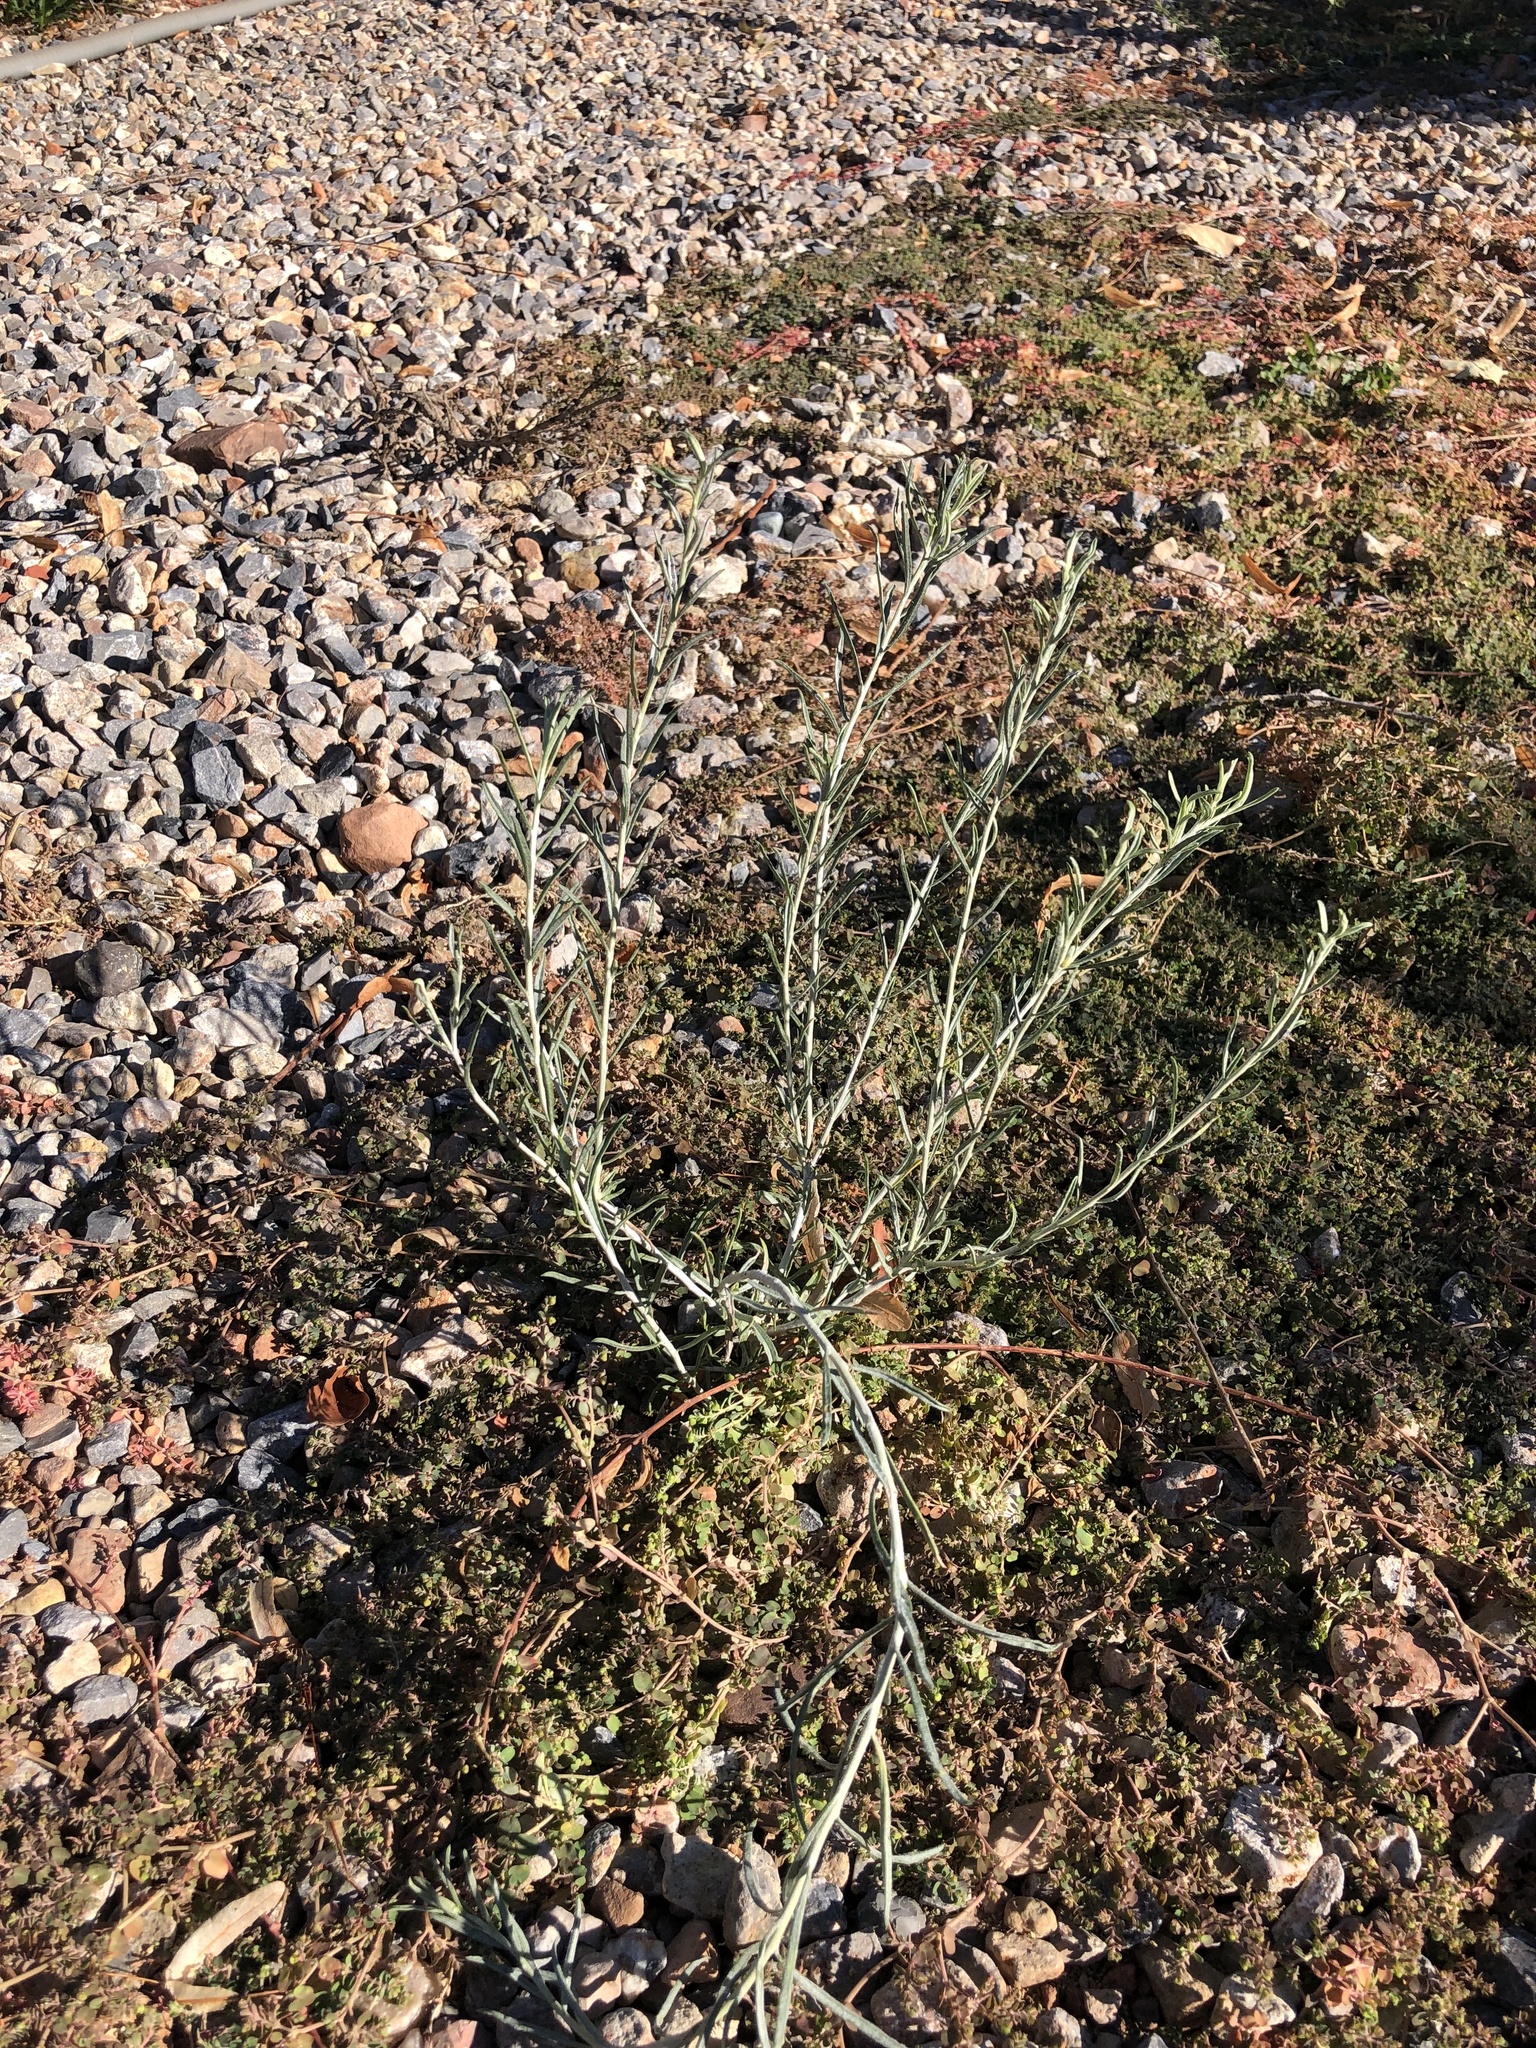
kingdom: Plantae
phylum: Tracheophyta
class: Magnoliopsida
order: Asterales
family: Asteraceae
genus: Ericameria
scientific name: Ericameria nauseosa
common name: Rubber rabbitbrush
